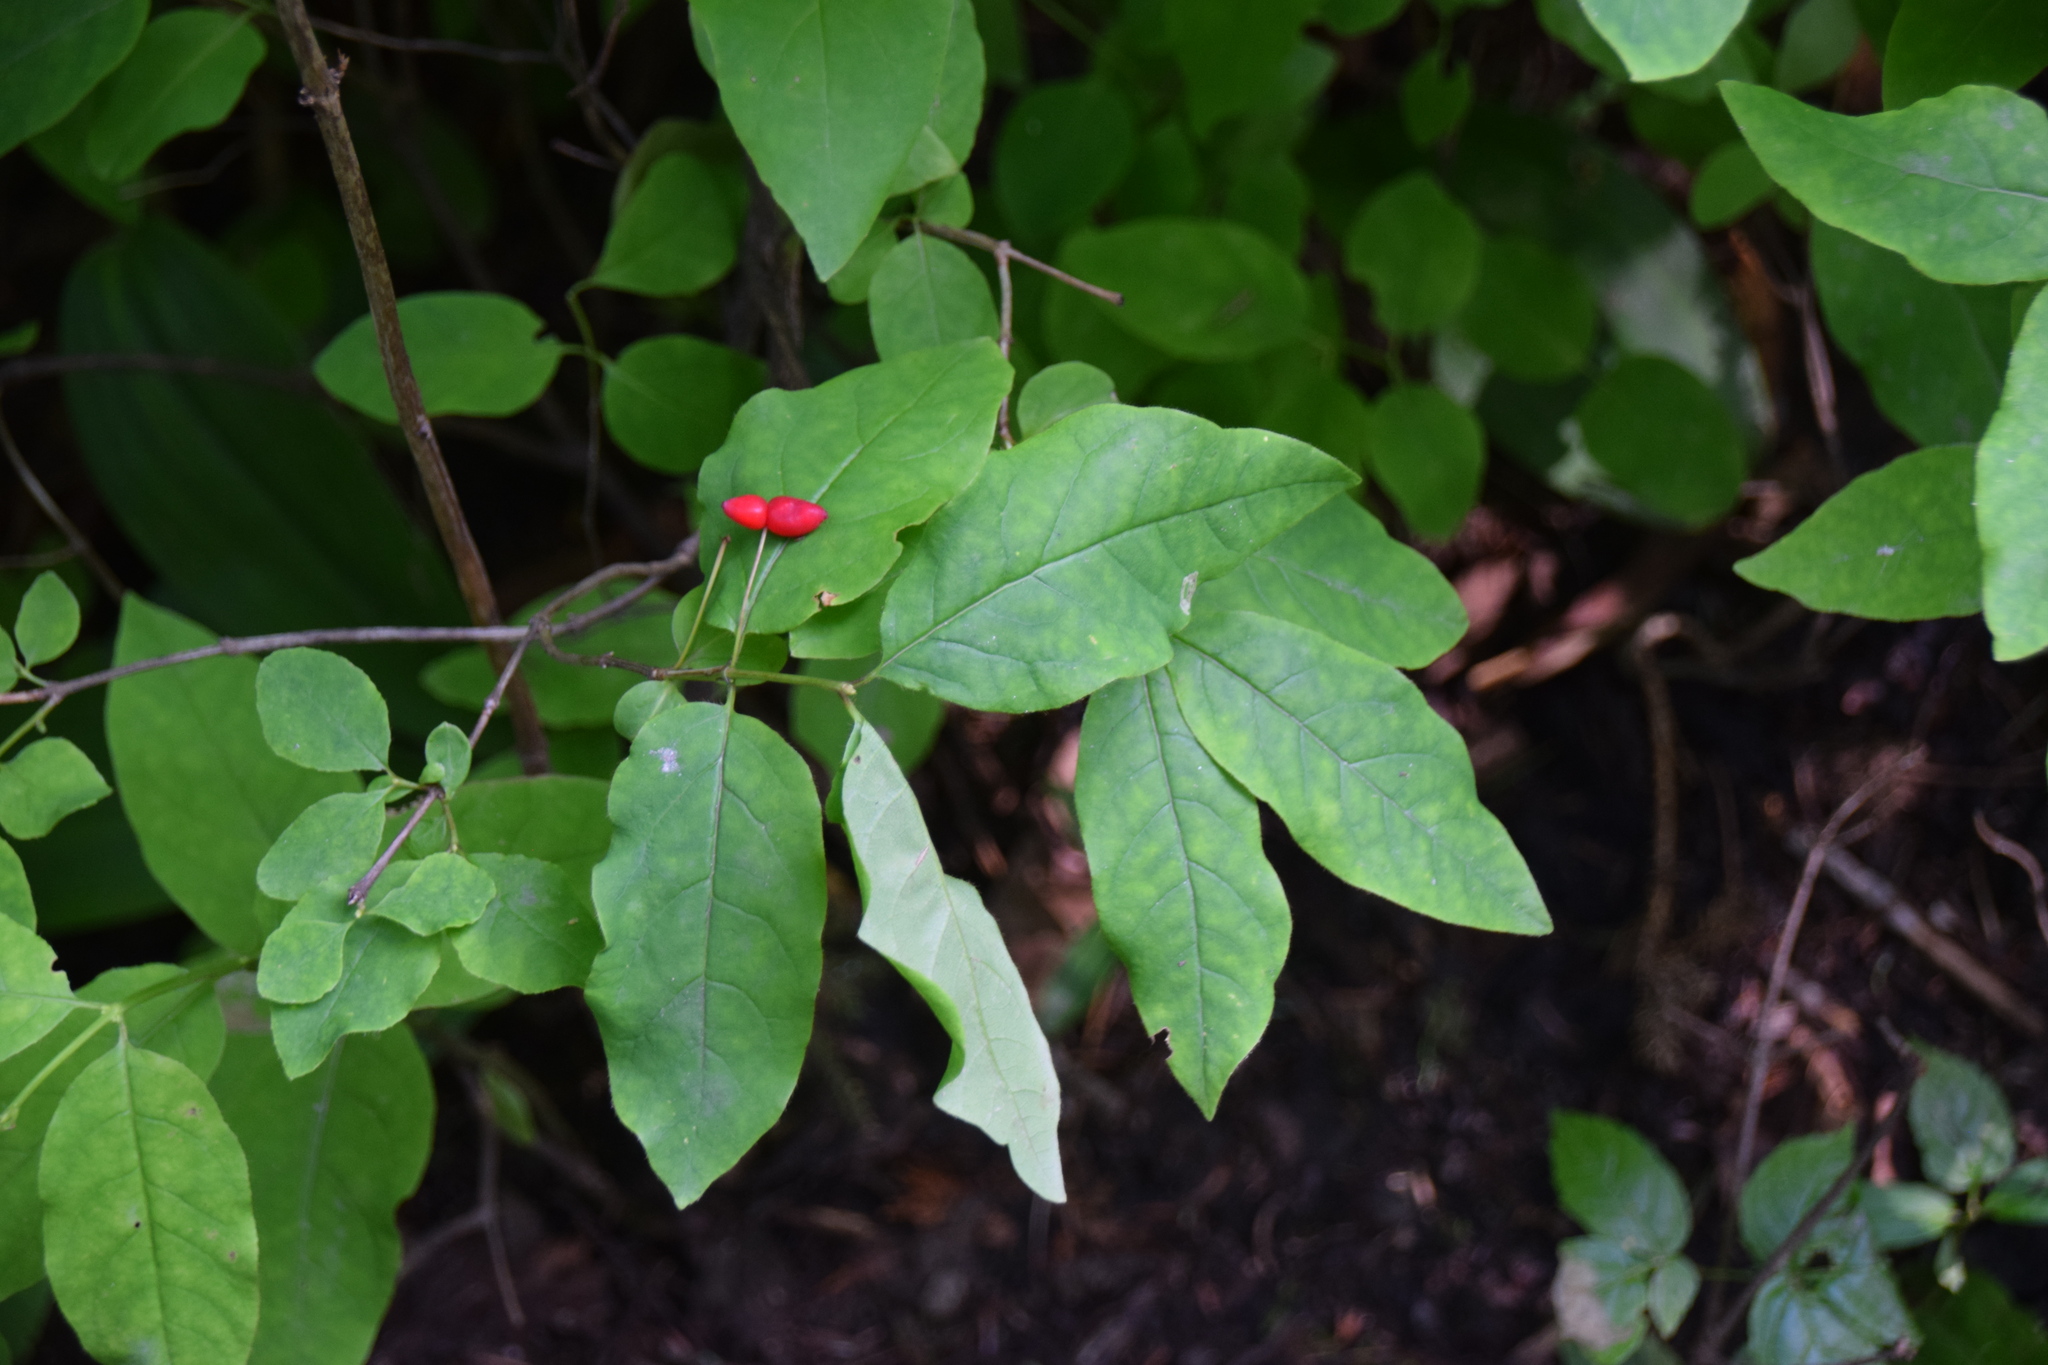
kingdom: Plantae
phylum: Tracheophyta
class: Magnoliopsida
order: Dipsacales
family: Caprifoliaceae
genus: Lonicera
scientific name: Lonicera canadensis
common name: American fly-honeysuckle
